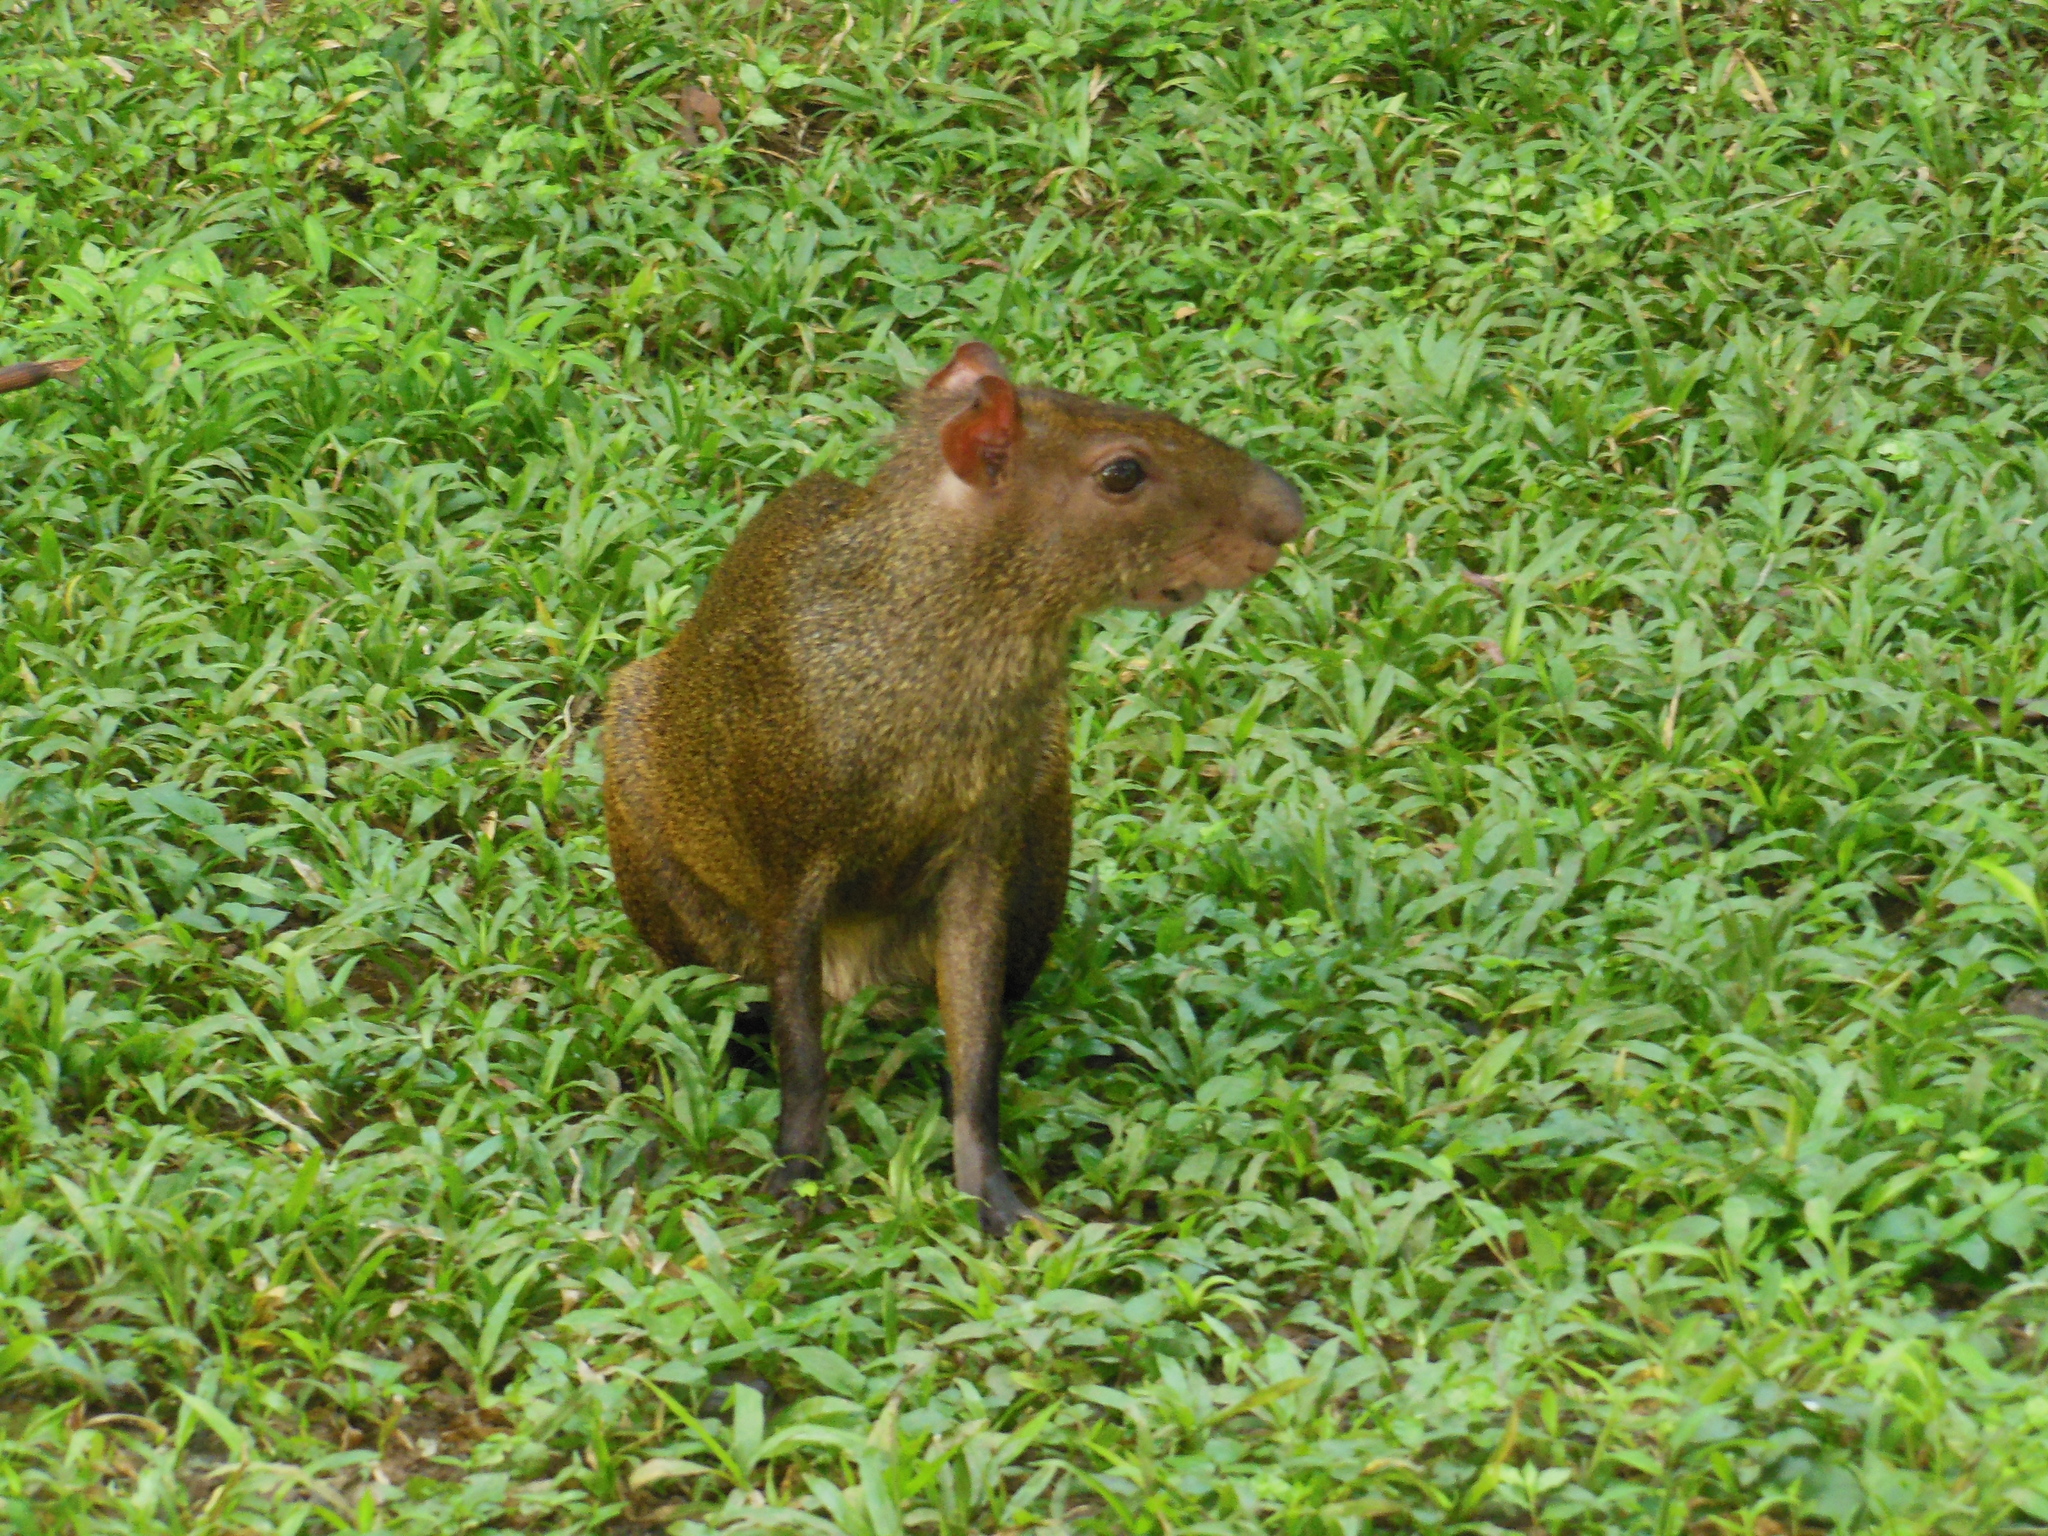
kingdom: Animalia
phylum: Chordata
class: Mammalia
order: Rodentia
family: Dasyproctidae
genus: Dasyprocta
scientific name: Dasyprocta punctata
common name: Central american agouti
